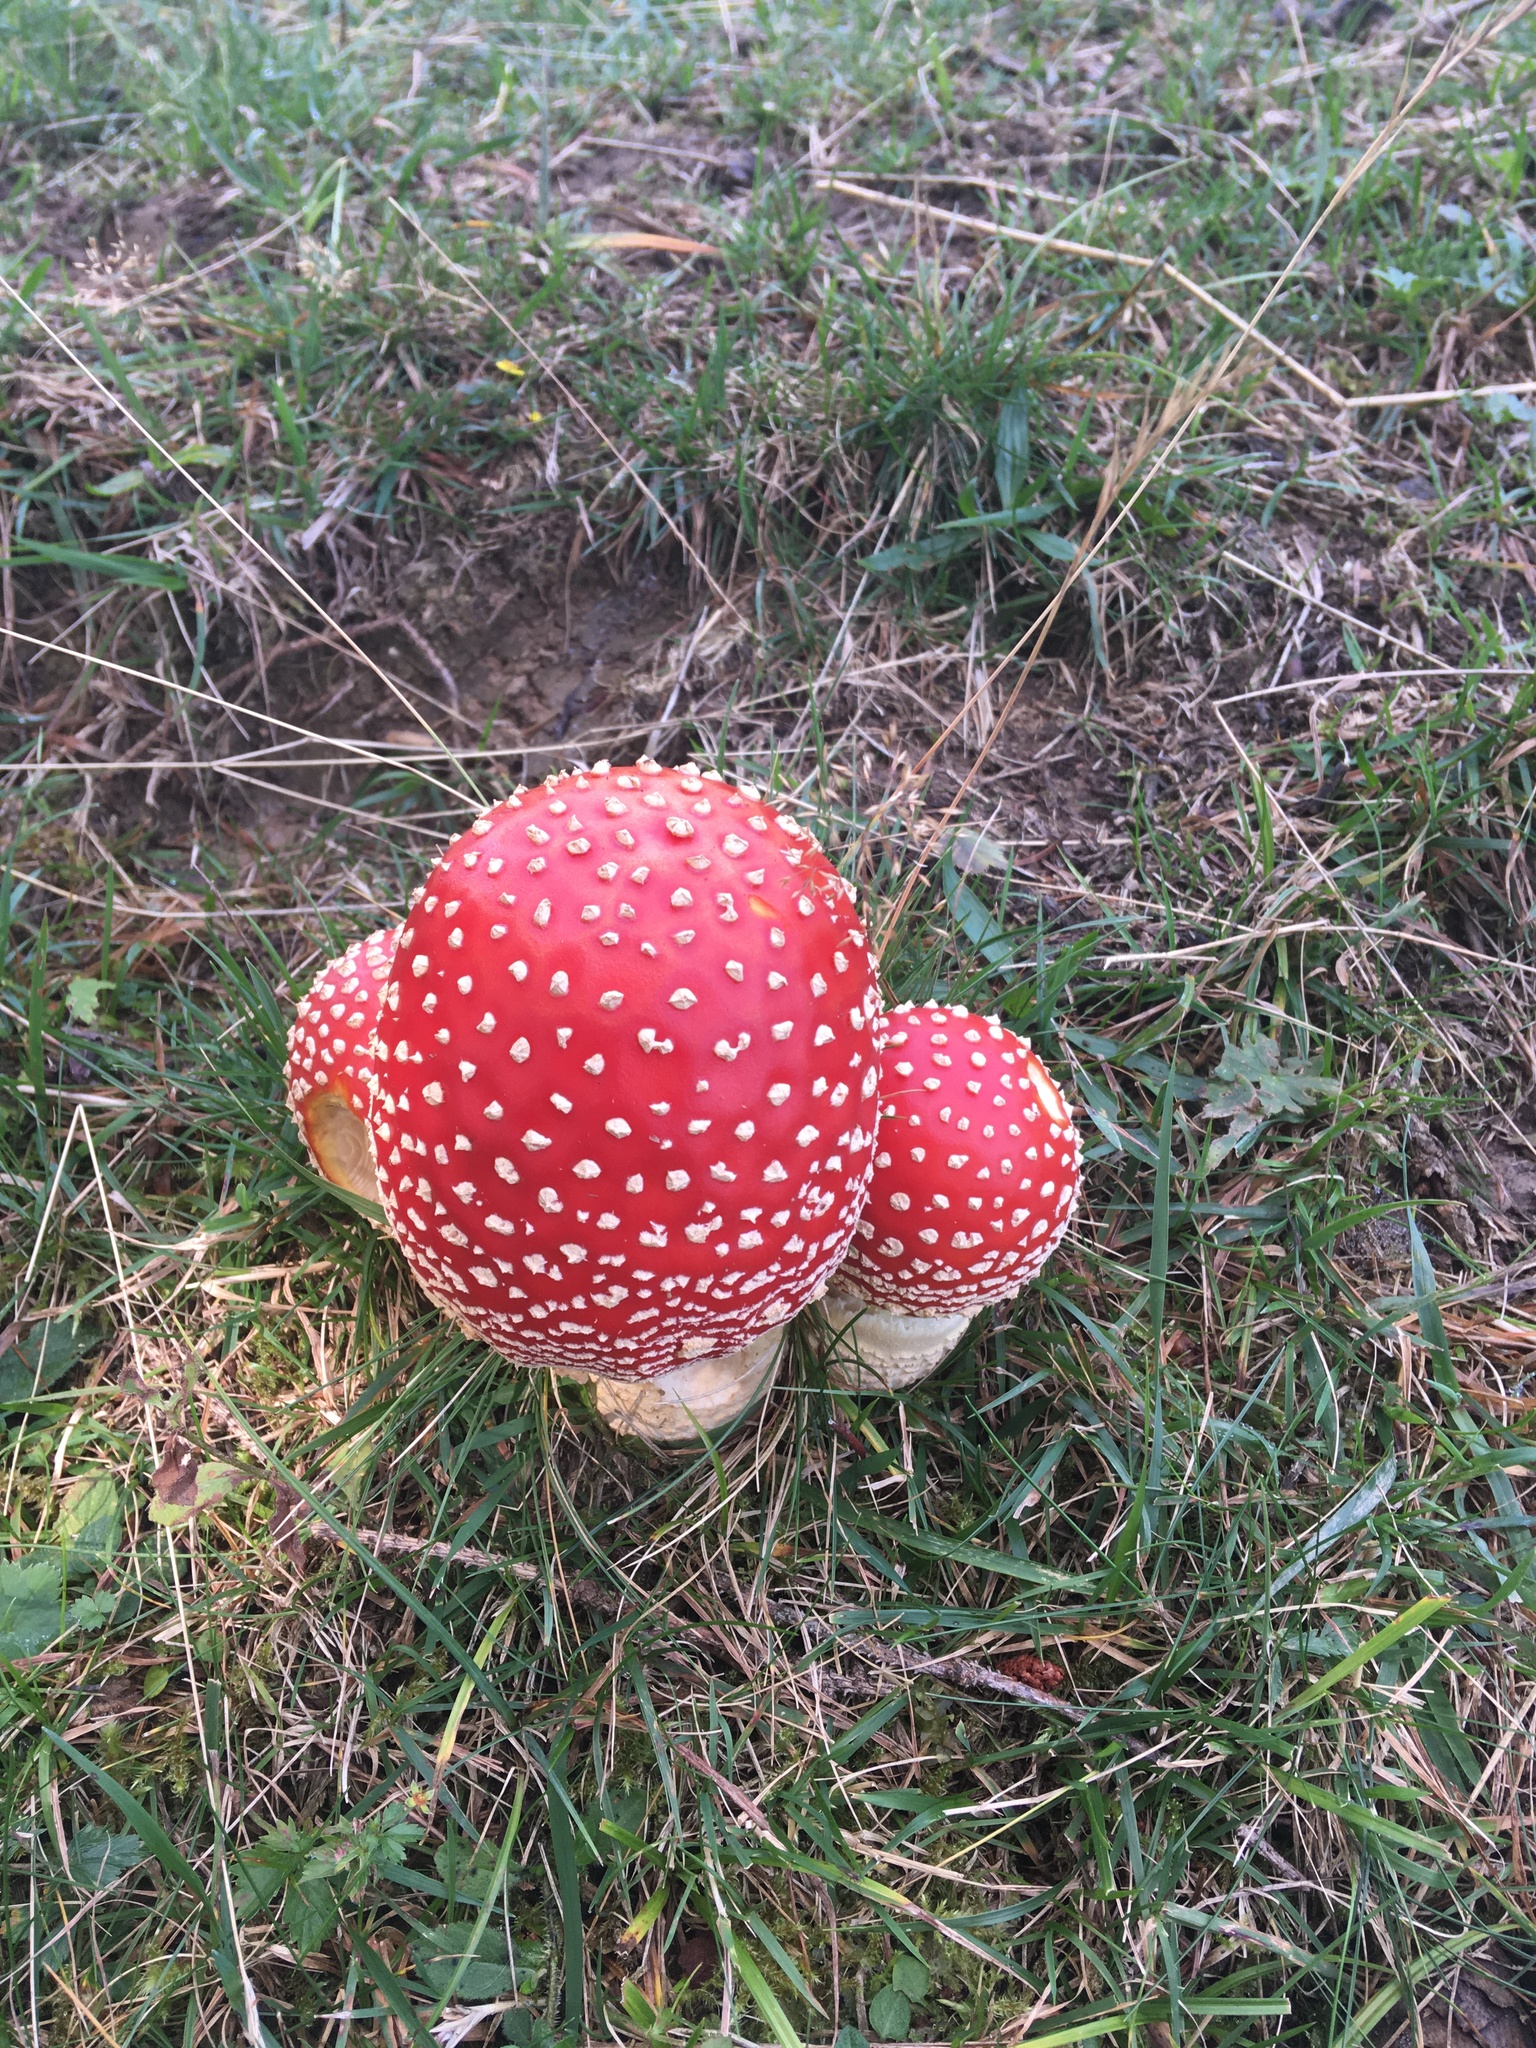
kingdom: Fungi
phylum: Basidiomycota
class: Agaricomycetes
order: Agaricales
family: Amanitaceae
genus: Amanita
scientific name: Amanita muscaria
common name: Fly agaric
